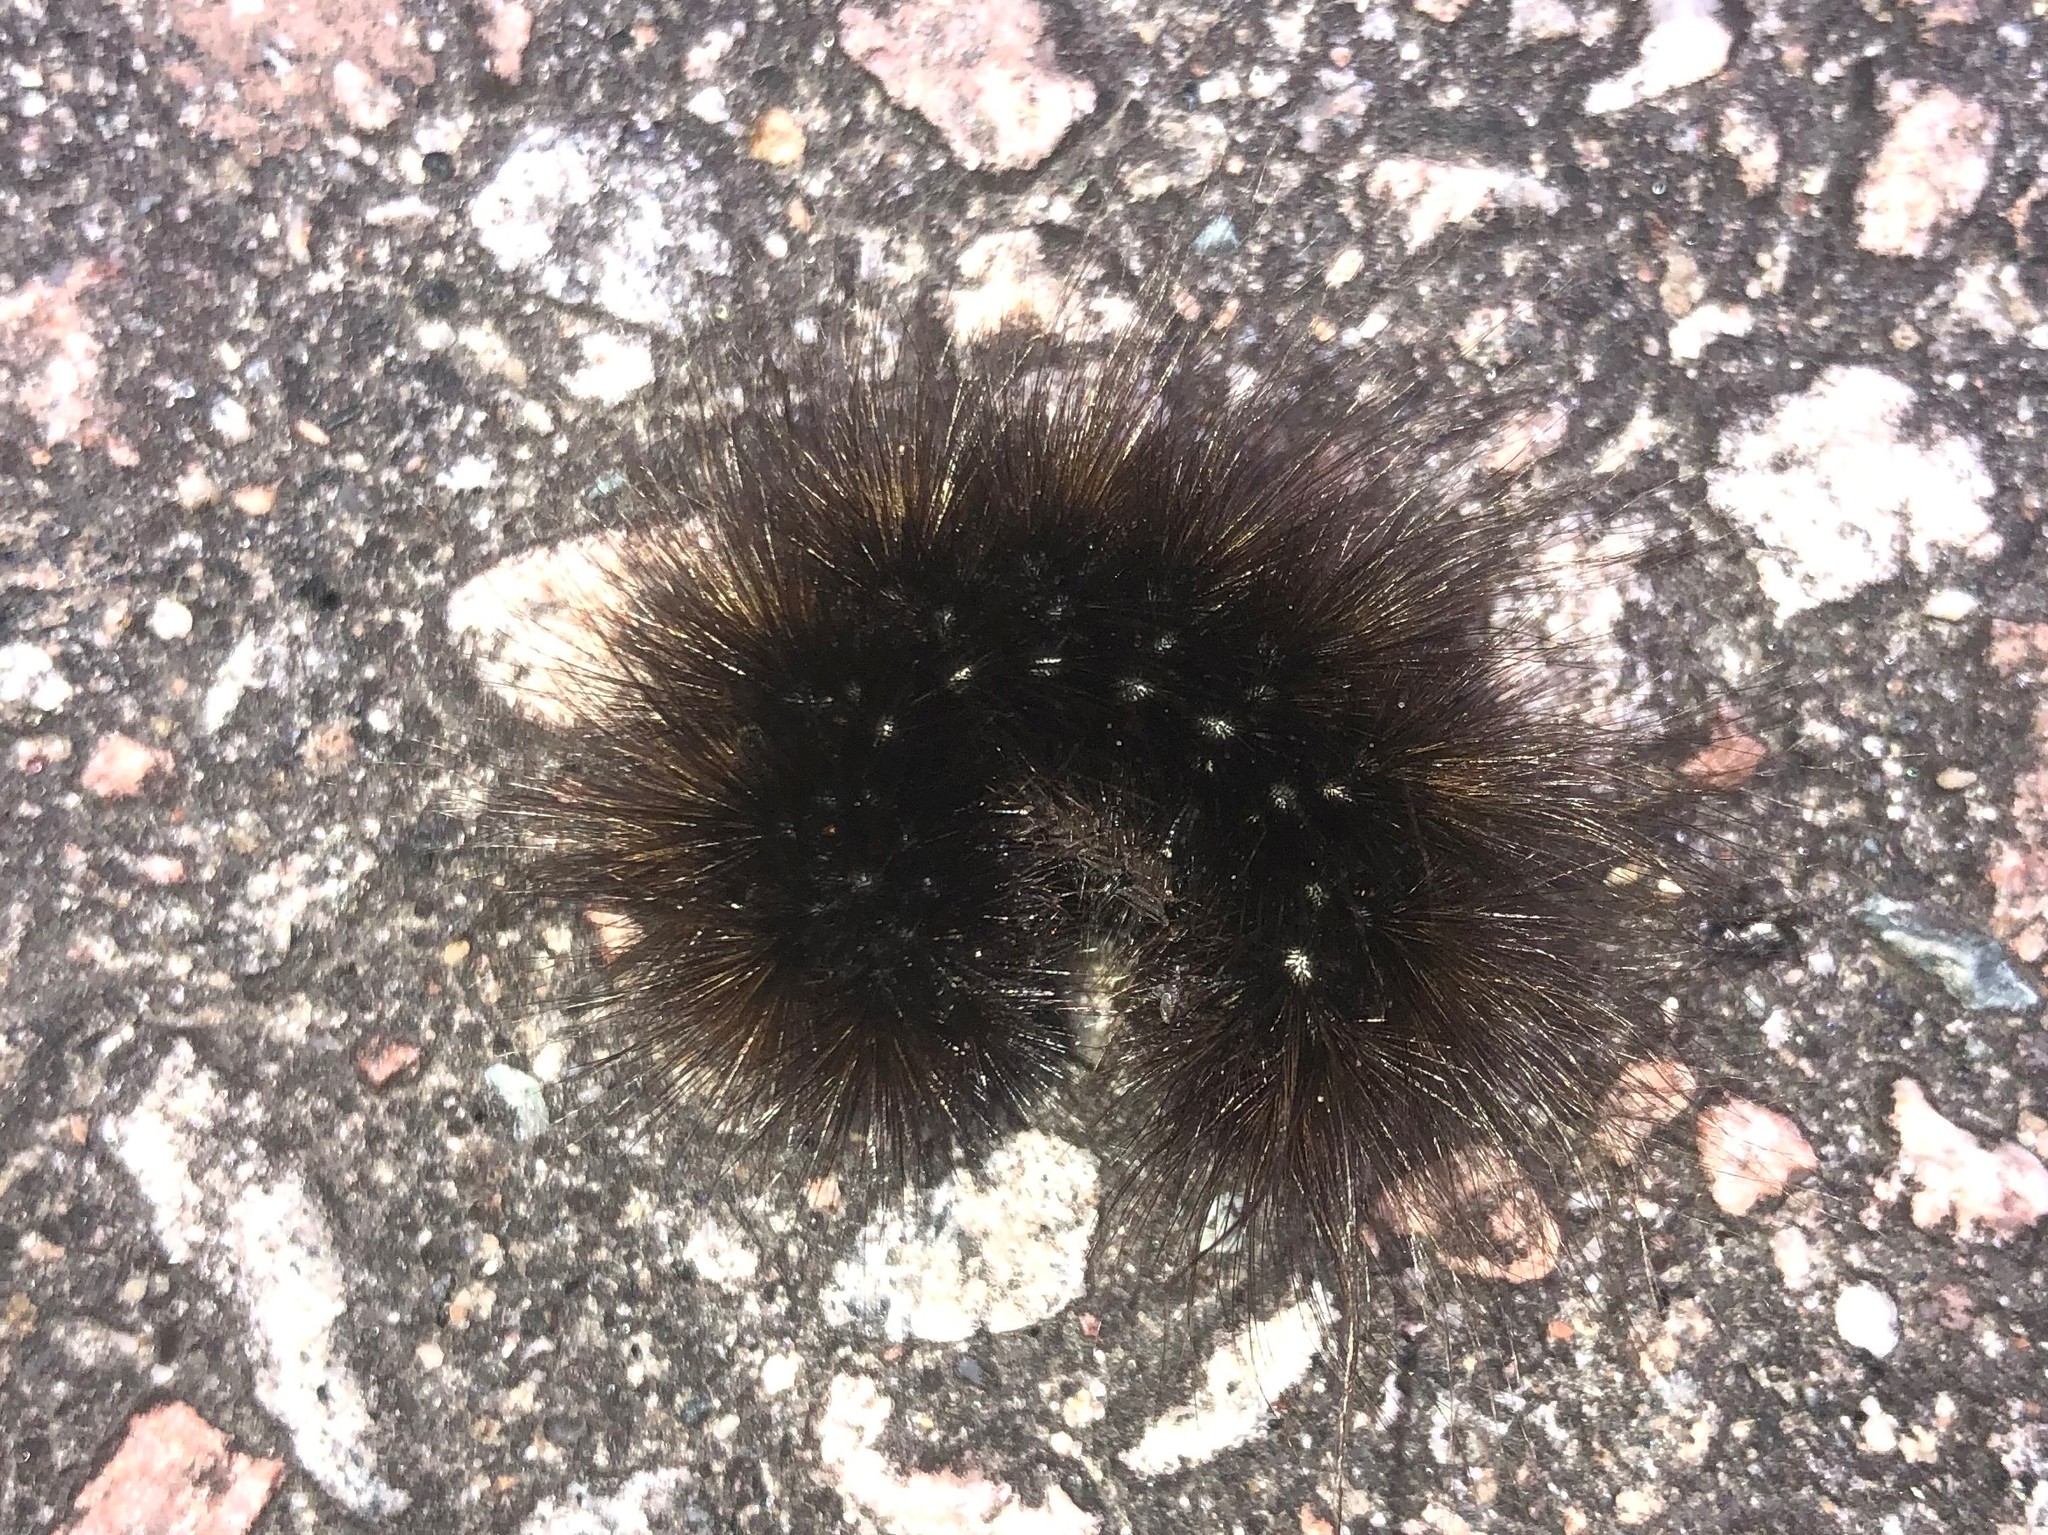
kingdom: Animalia
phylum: Arthropoda
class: Insecta
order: Lepidoptera
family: Erebidae
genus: Arctia
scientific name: Arctia parthenos
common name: St. lawrence tiger moth
